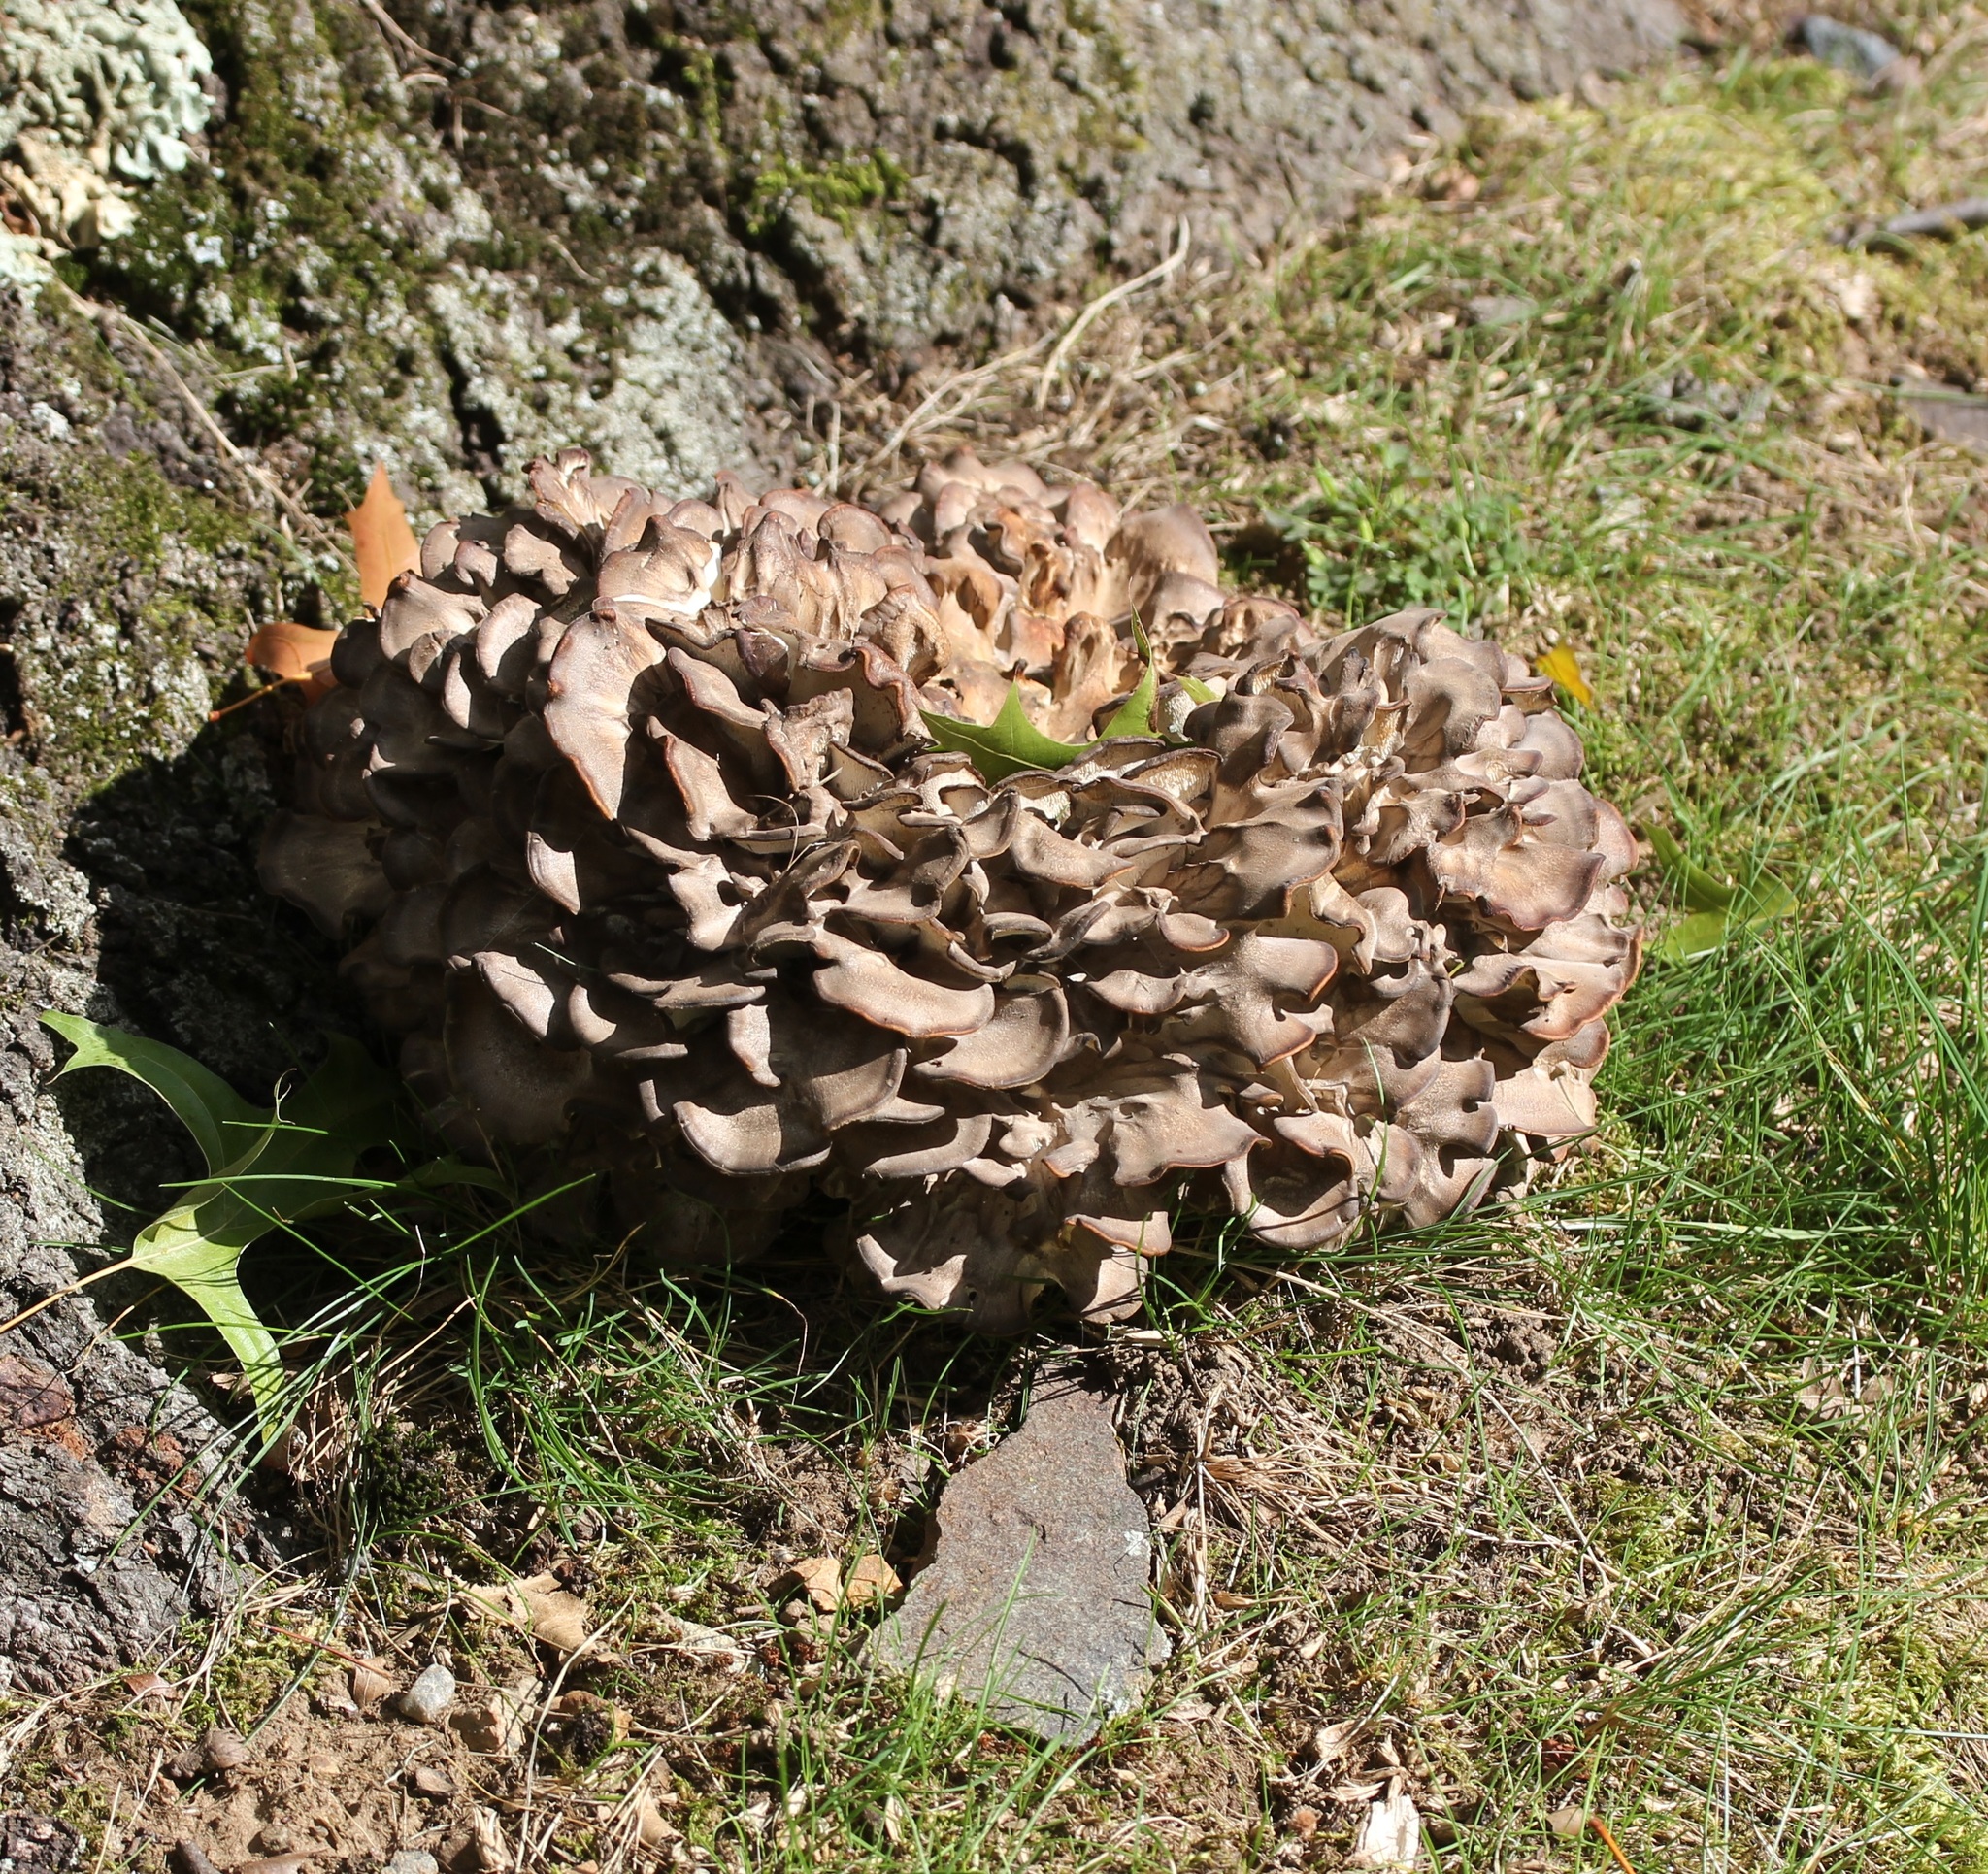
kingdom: Fungi
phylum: Basidiomycota
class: Agaricomycetes
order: Polyporales
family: Grifolaceae
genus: Grifola
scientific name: Grifola frondosa
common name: Hen of the woods
